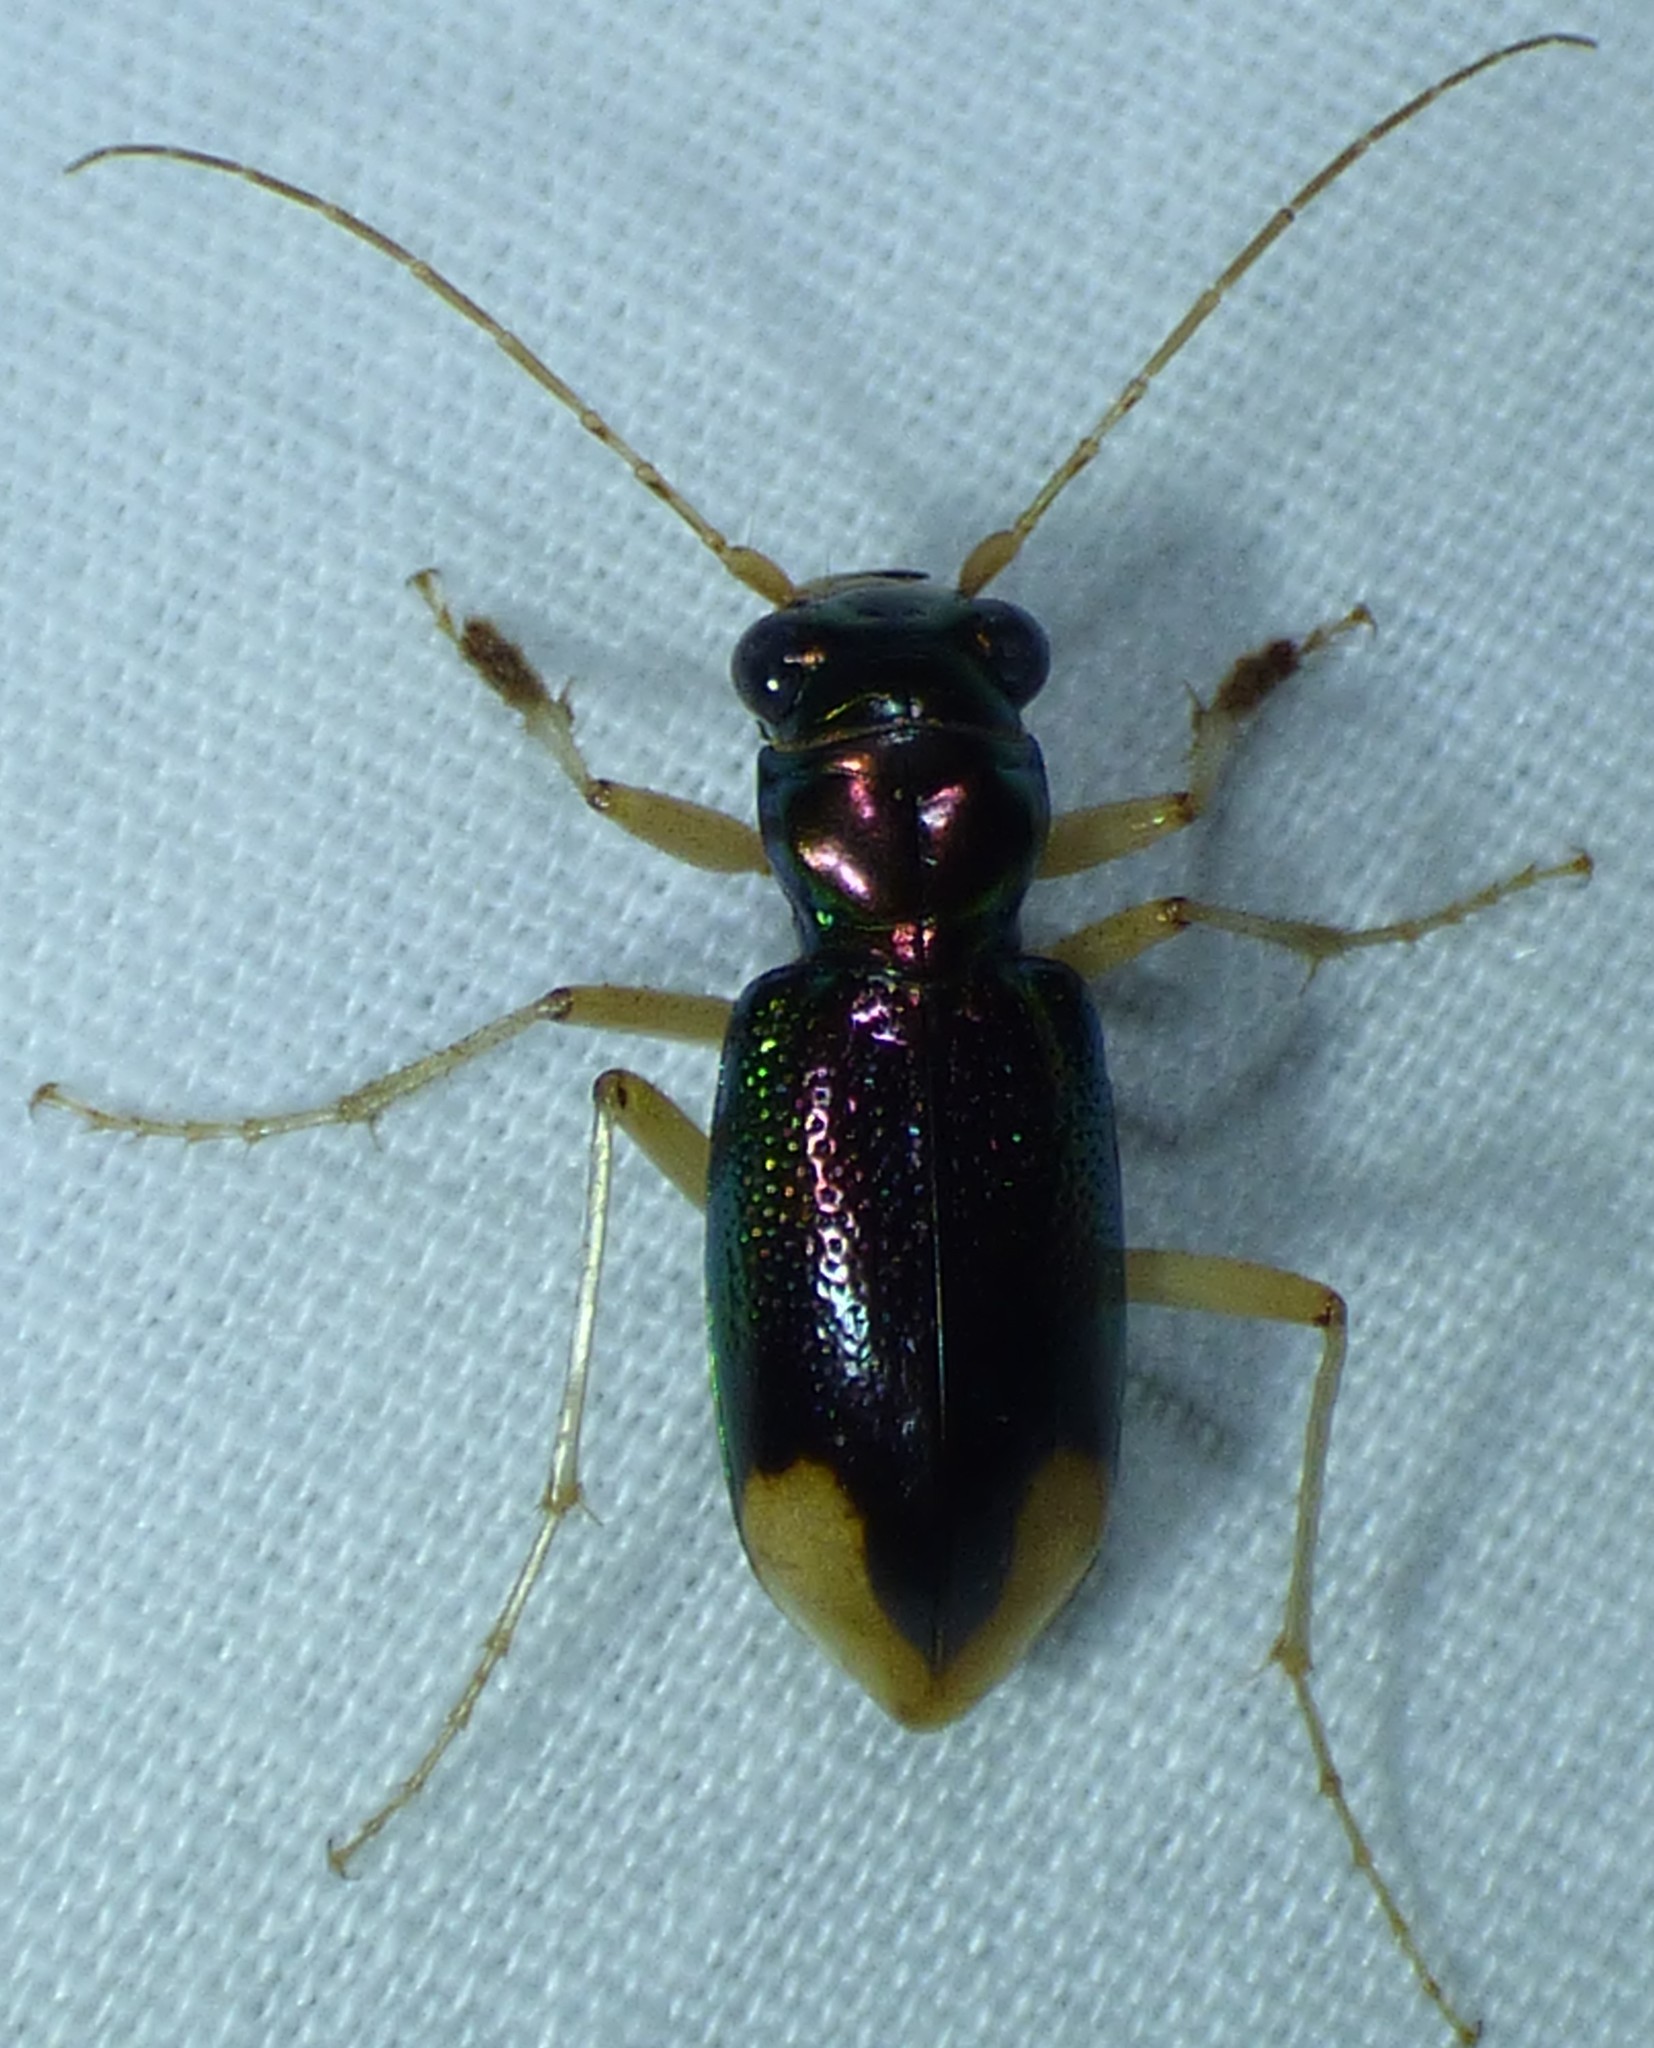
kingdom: Animalia
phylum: Arthropoda
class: Insecta
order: Coleoptera
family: Carabidae
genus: Tetracha
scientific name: Tetracha carolina
